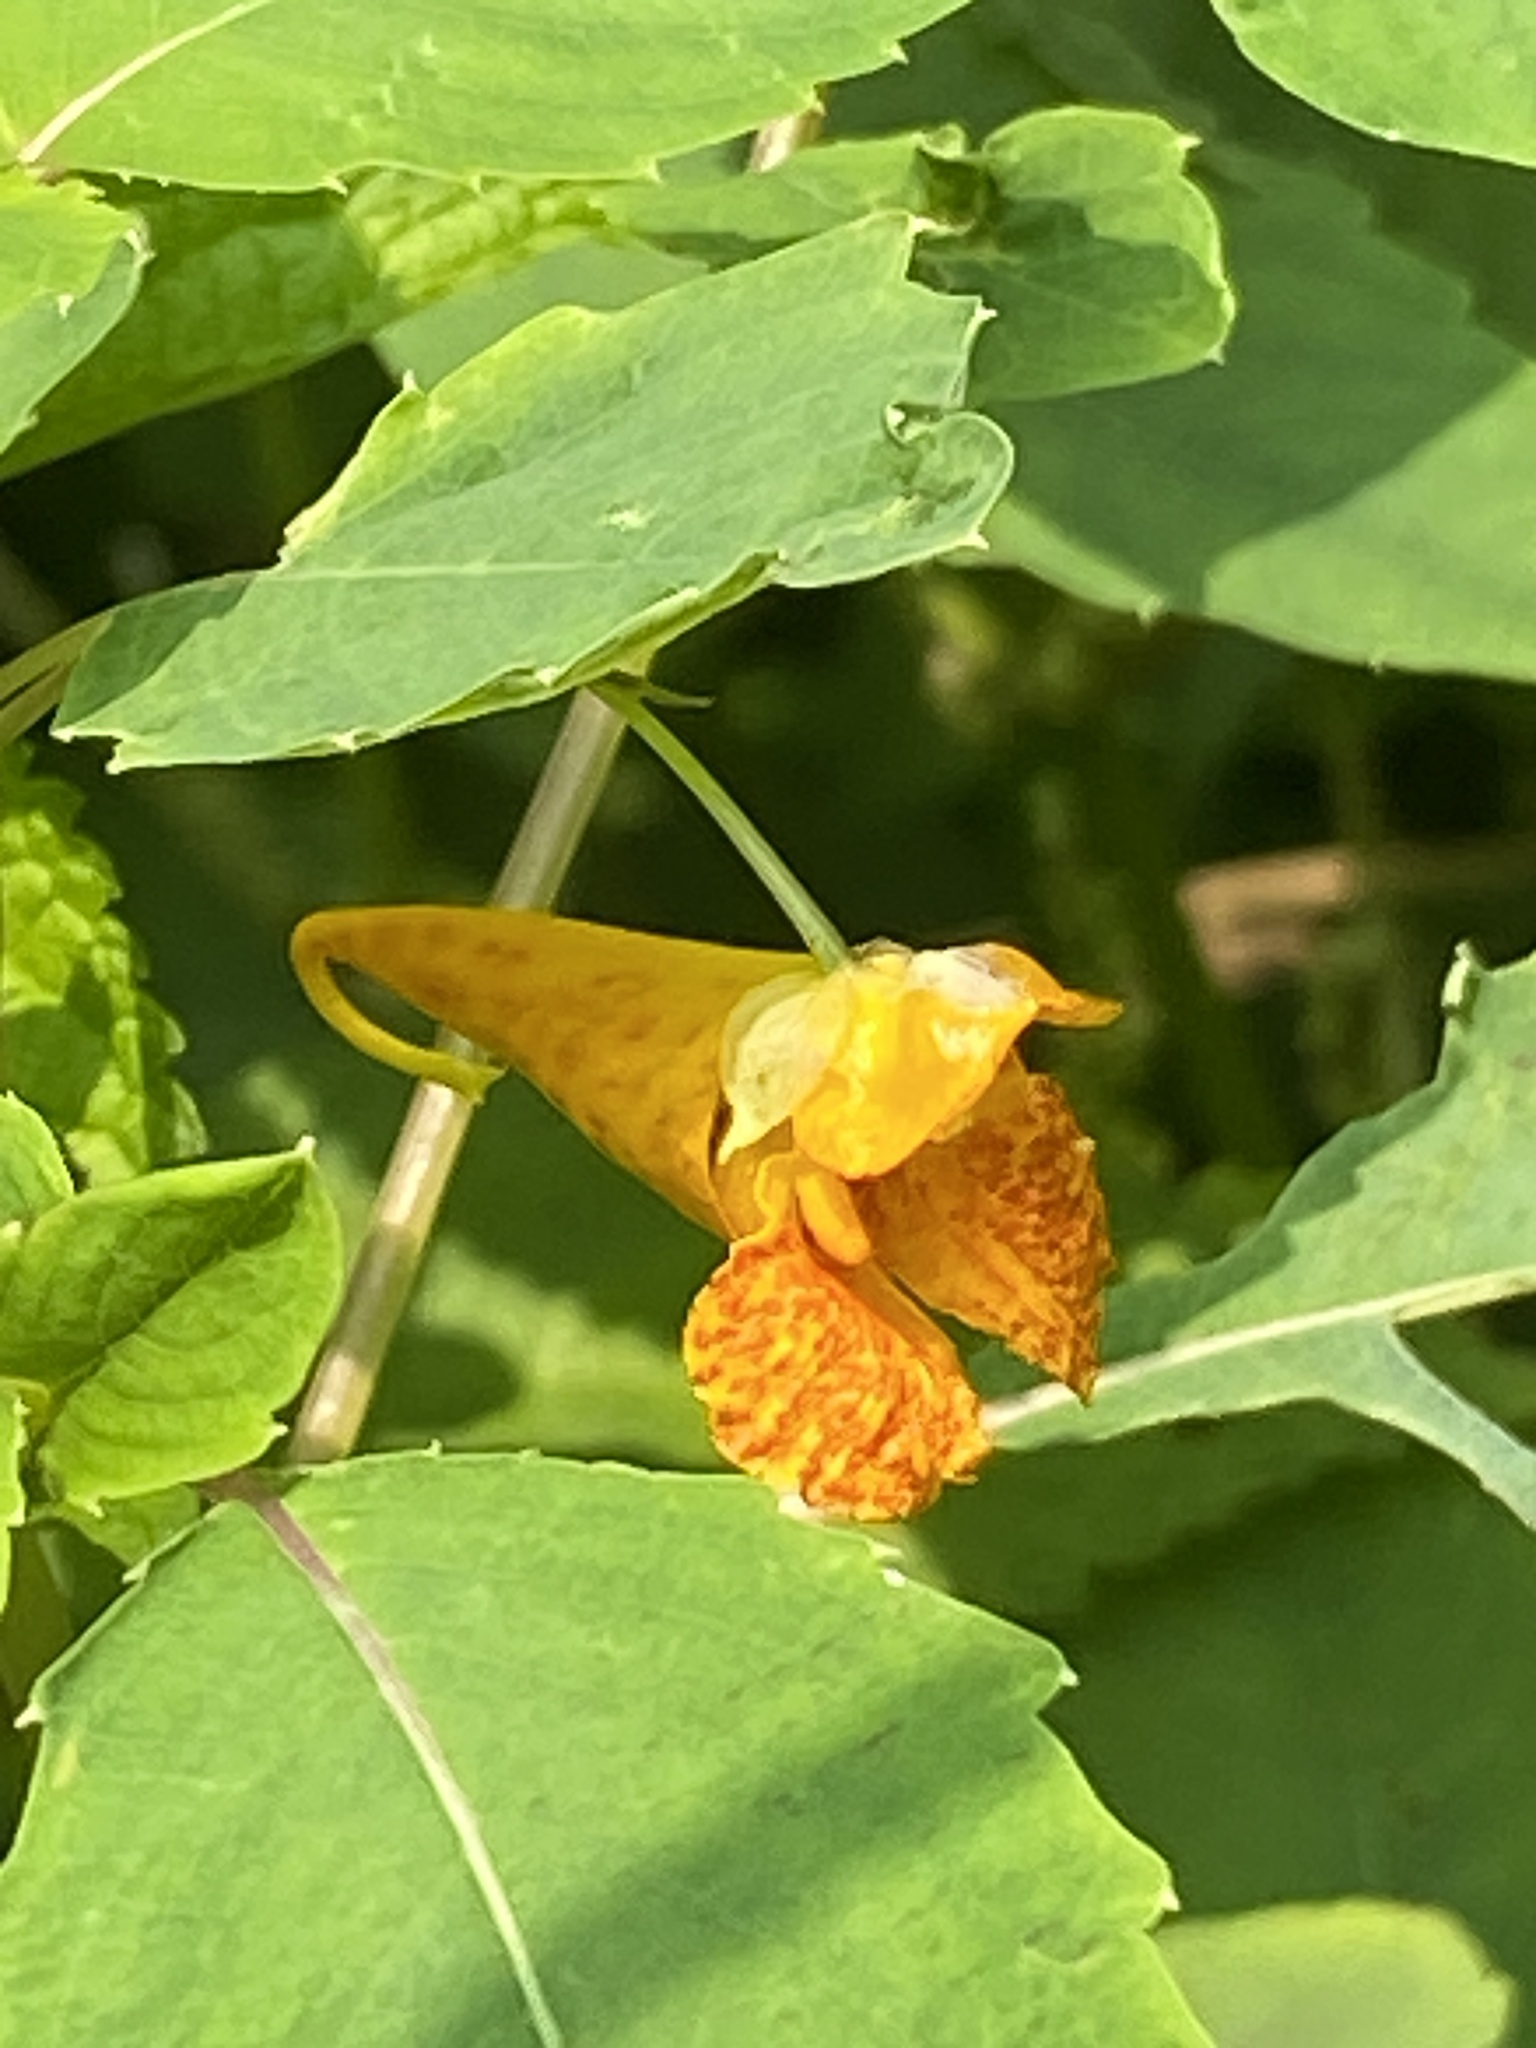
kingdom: Plantae
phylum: Tracheophyta
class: Magnoliopsida
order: Ericales
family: Balsaminaceae
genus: Impatiens
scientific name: Impatiens capensis
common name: Orange balsam
